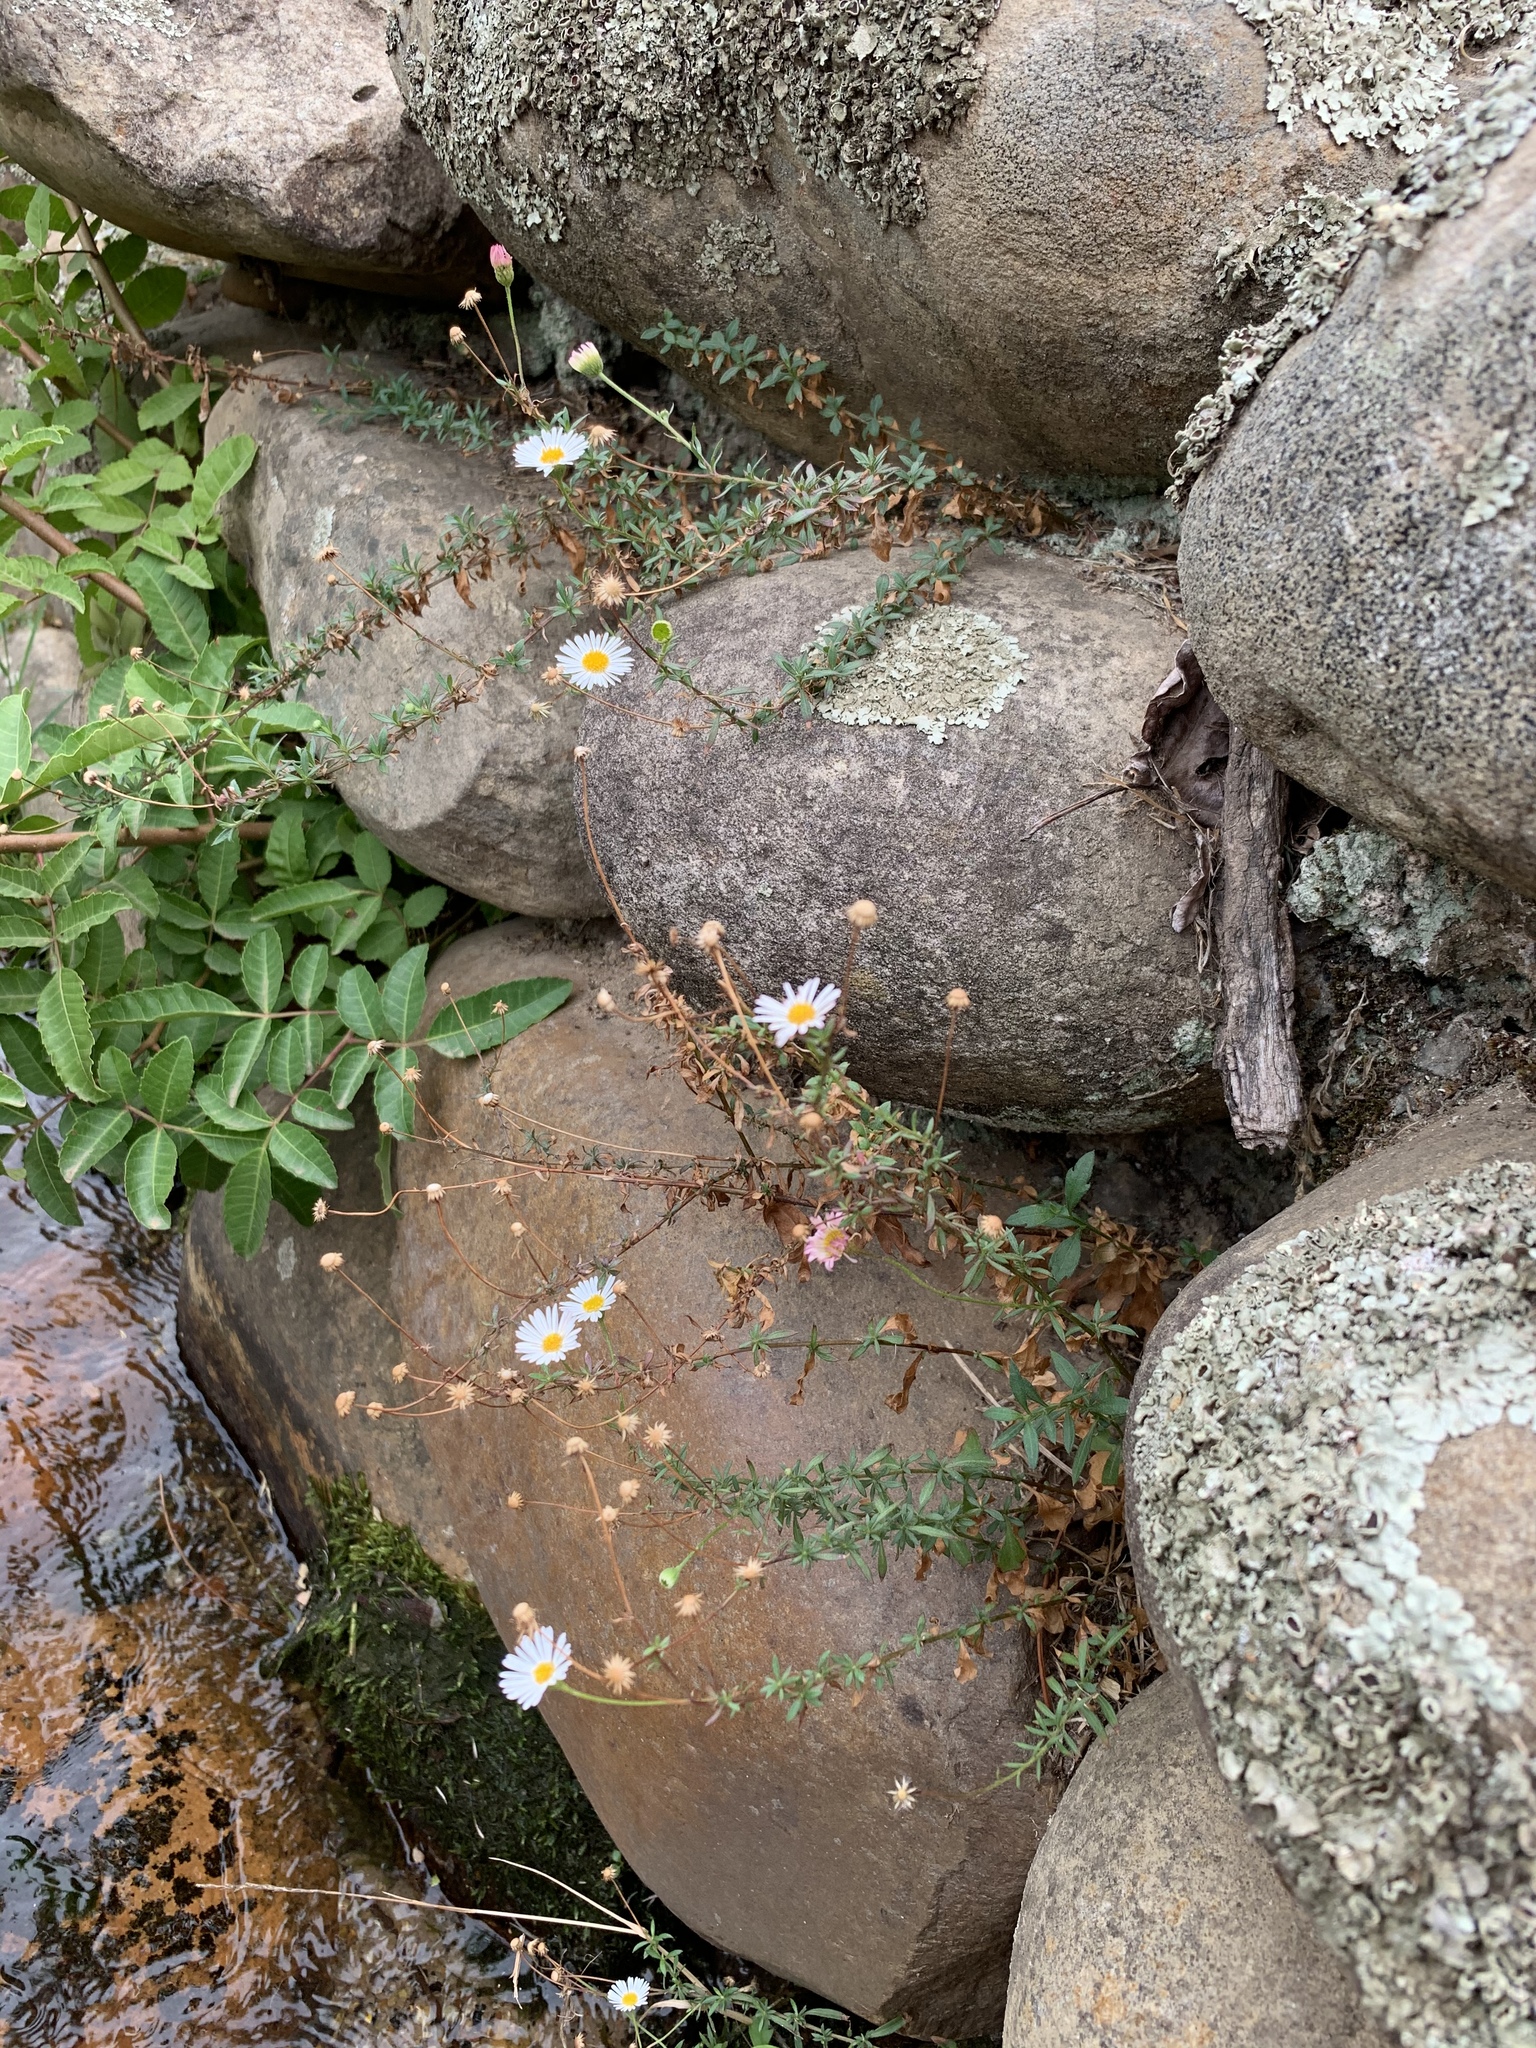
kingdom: Plantae
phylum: Tracheophyta
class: Magnoliopsida
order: Sapindales
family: Anacardiaceae
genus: Schinus
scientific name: Schinus terebinthifolia
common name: Brazilian peppertree
